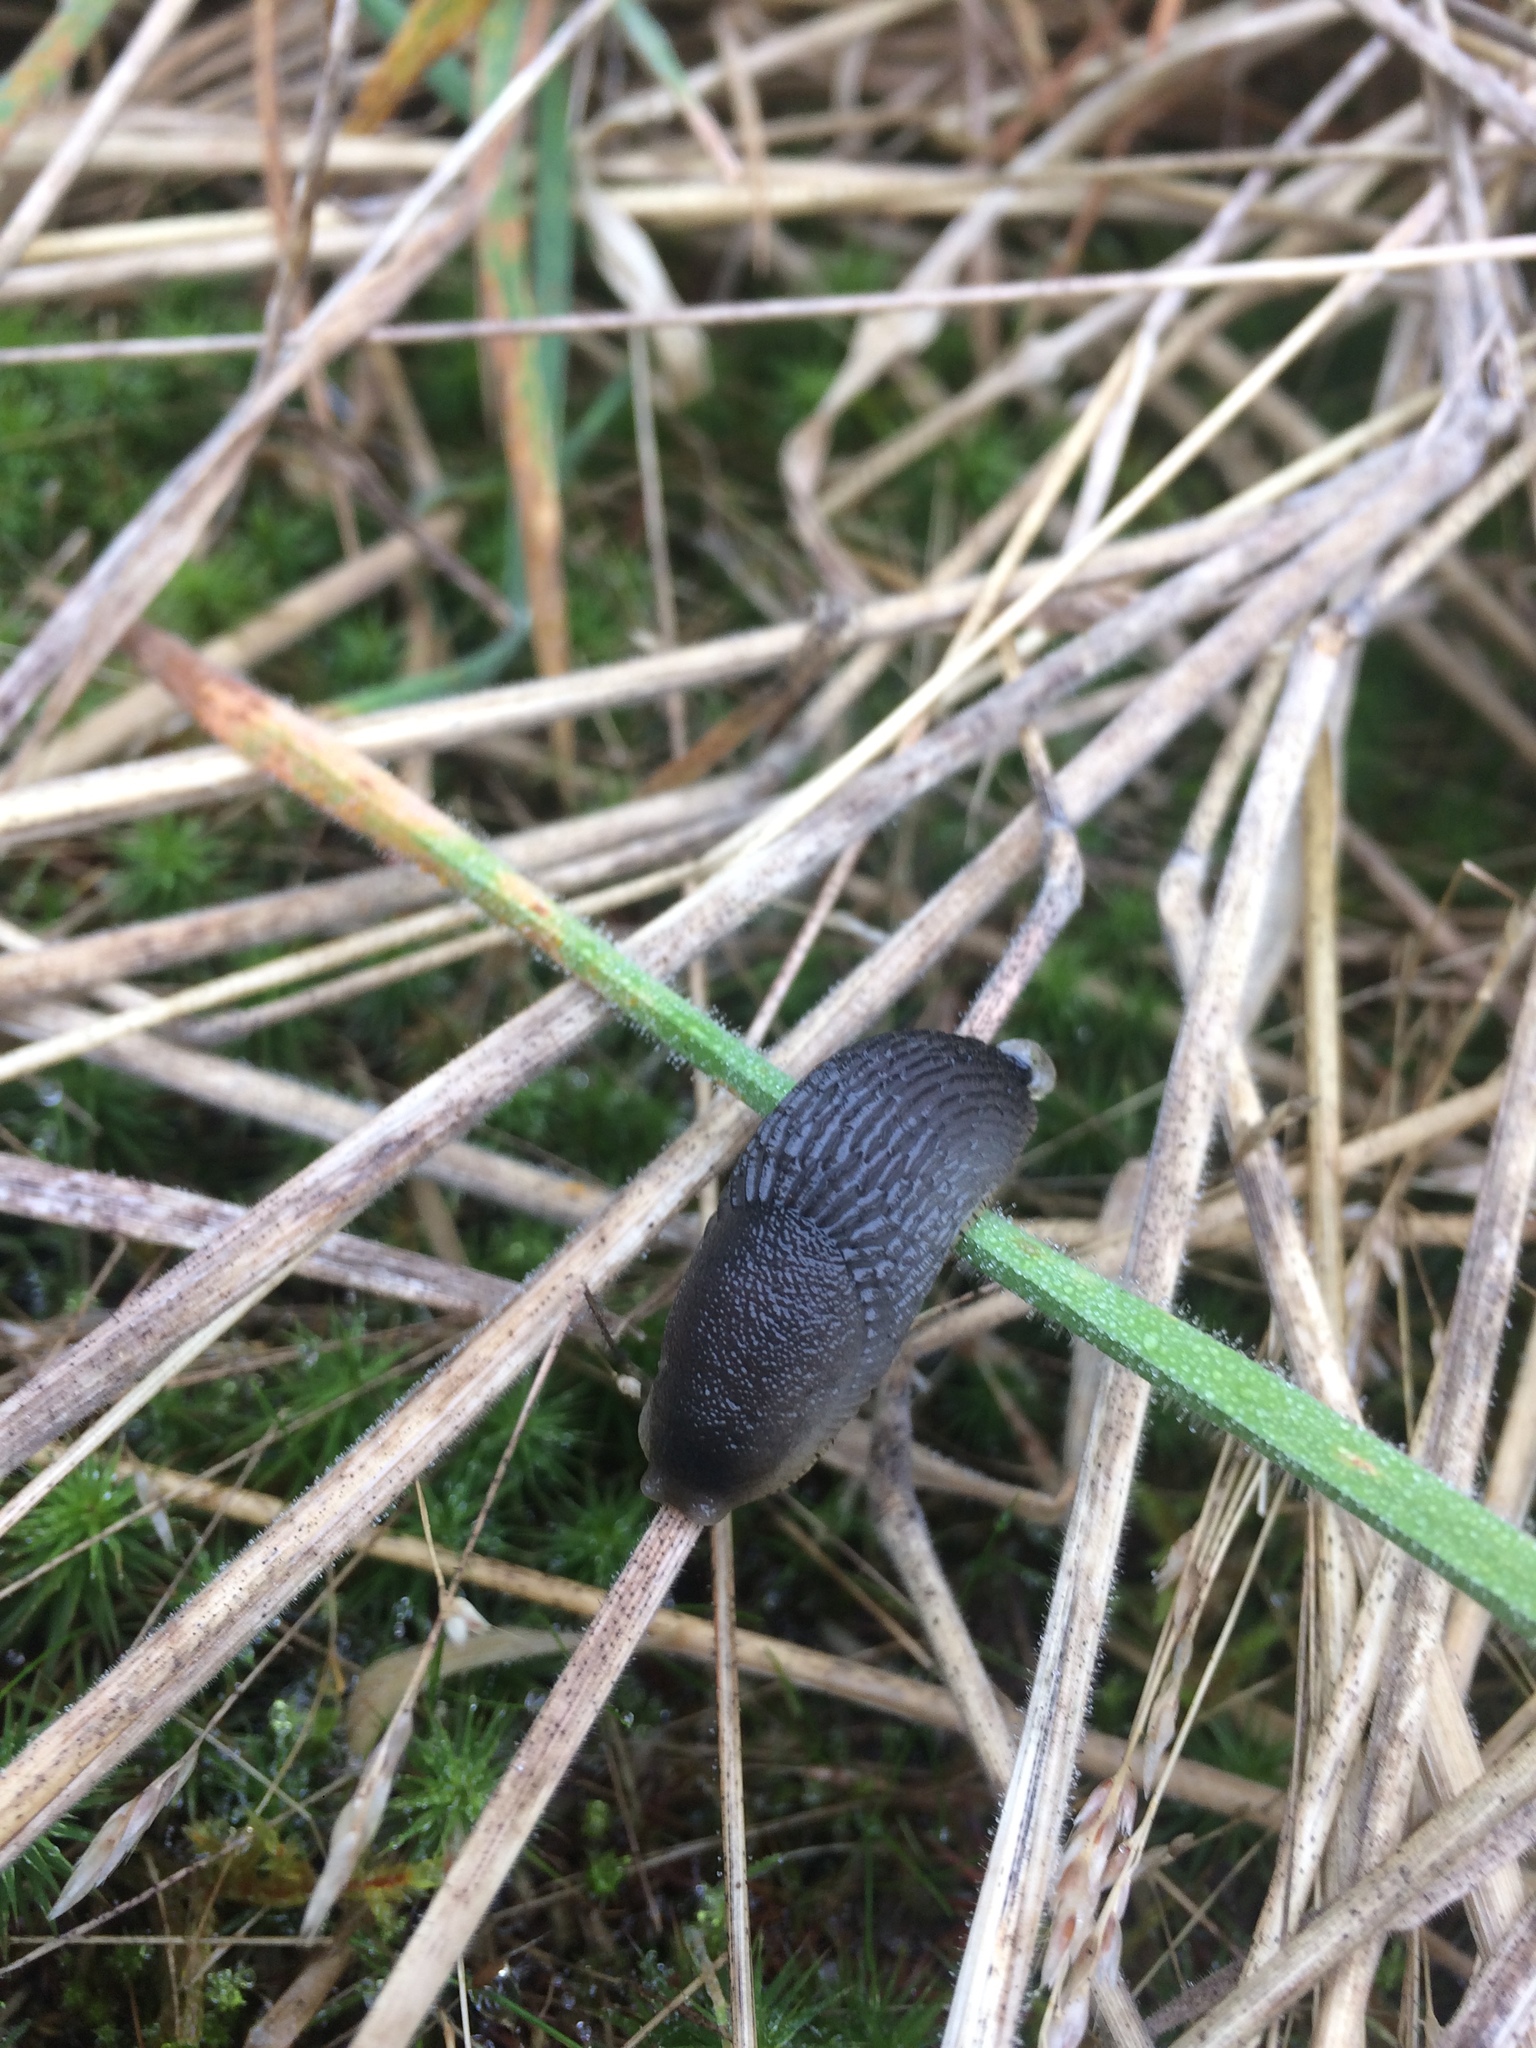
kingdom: Animalia
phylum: Mollusca
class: Gastropoda
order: Stylommatophora
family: Arionidae
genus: Arion
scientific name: Arion
